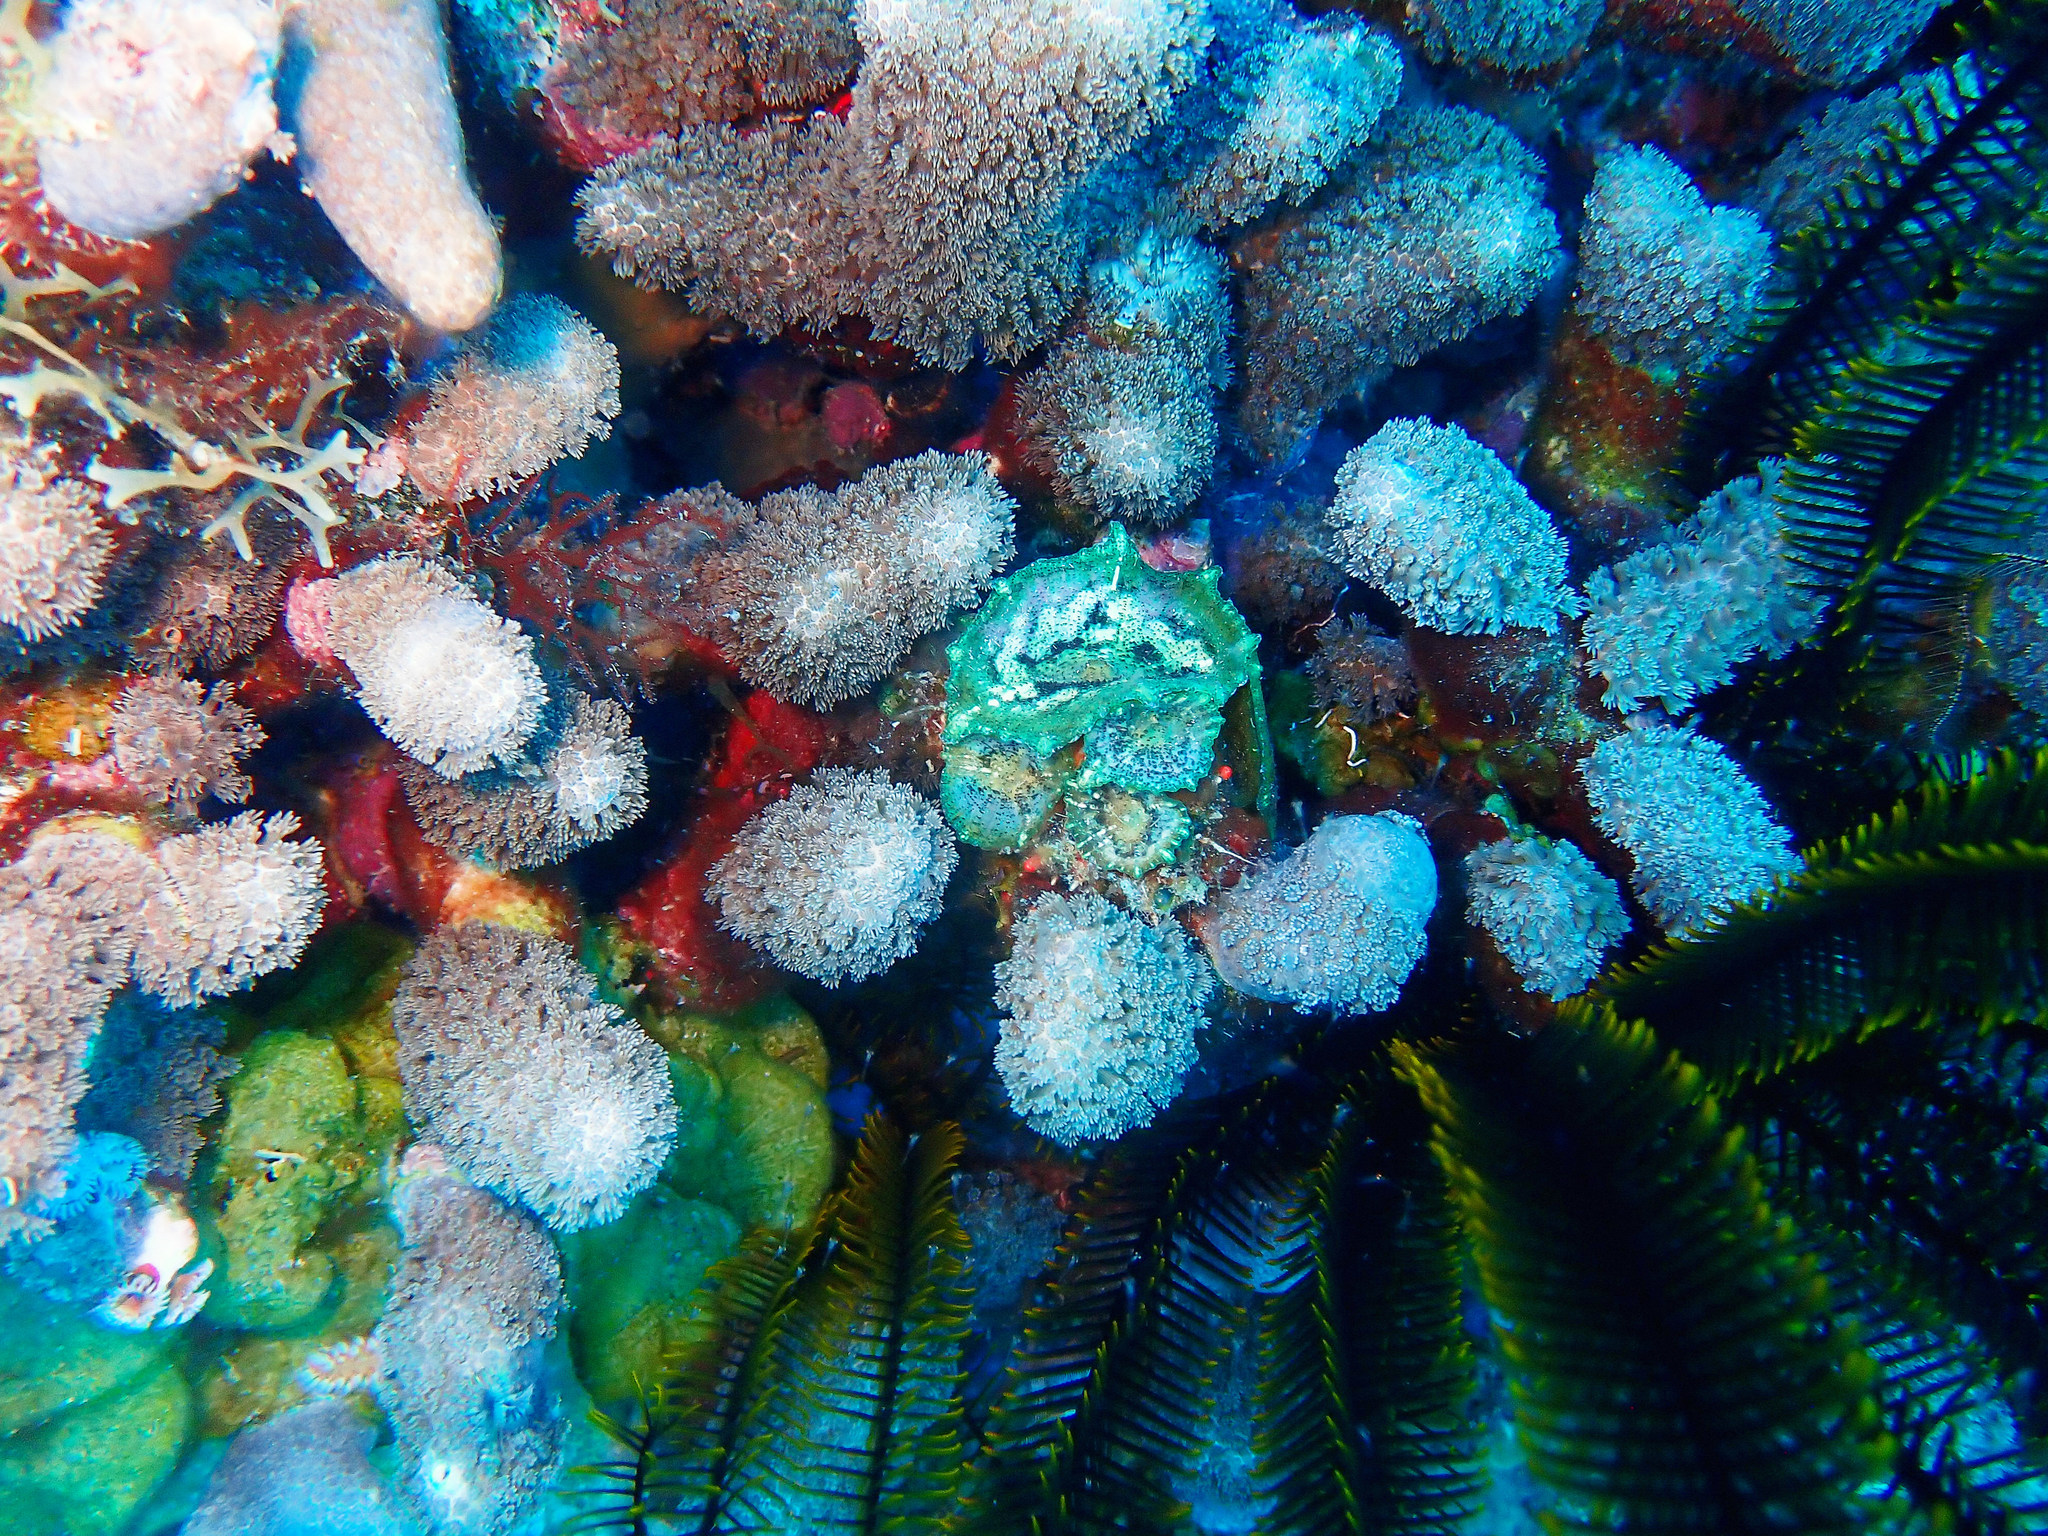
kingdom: Animalia
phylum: Cnidaria
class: Anthozoa
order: Scleractinia
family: Poritidae
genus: Porites
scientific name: Porites porites
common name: Finger coral
